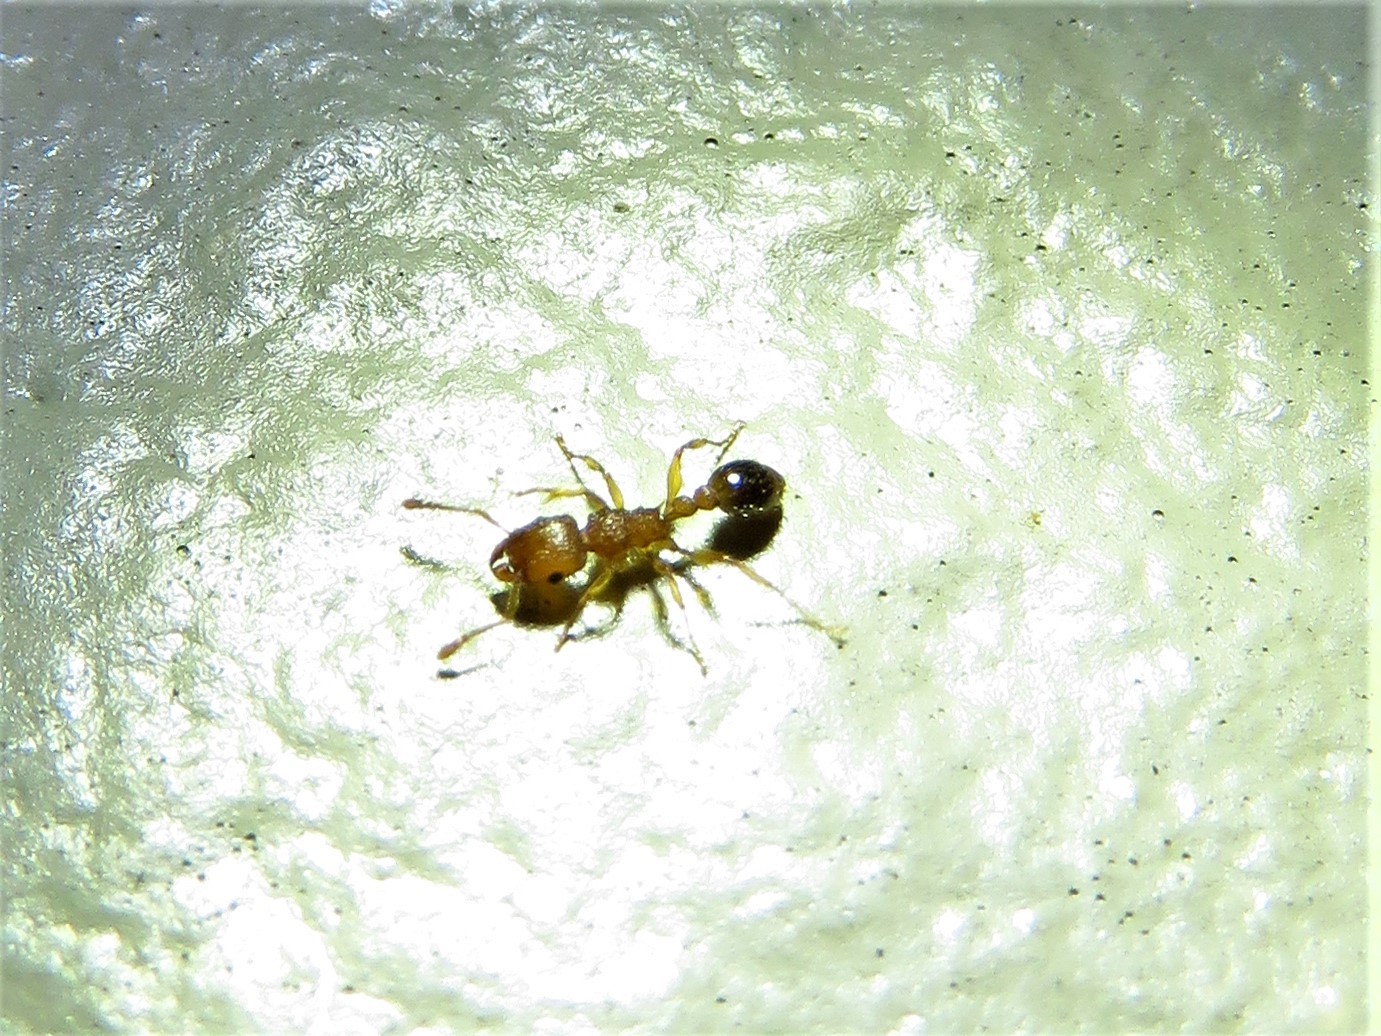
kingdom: Animalia
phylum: Arthropoda
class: Insecta
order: Hymenoptera
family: Formicidae
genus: Tetramorium
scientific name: Tetramorium bicarinatum
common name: Guinea ant
